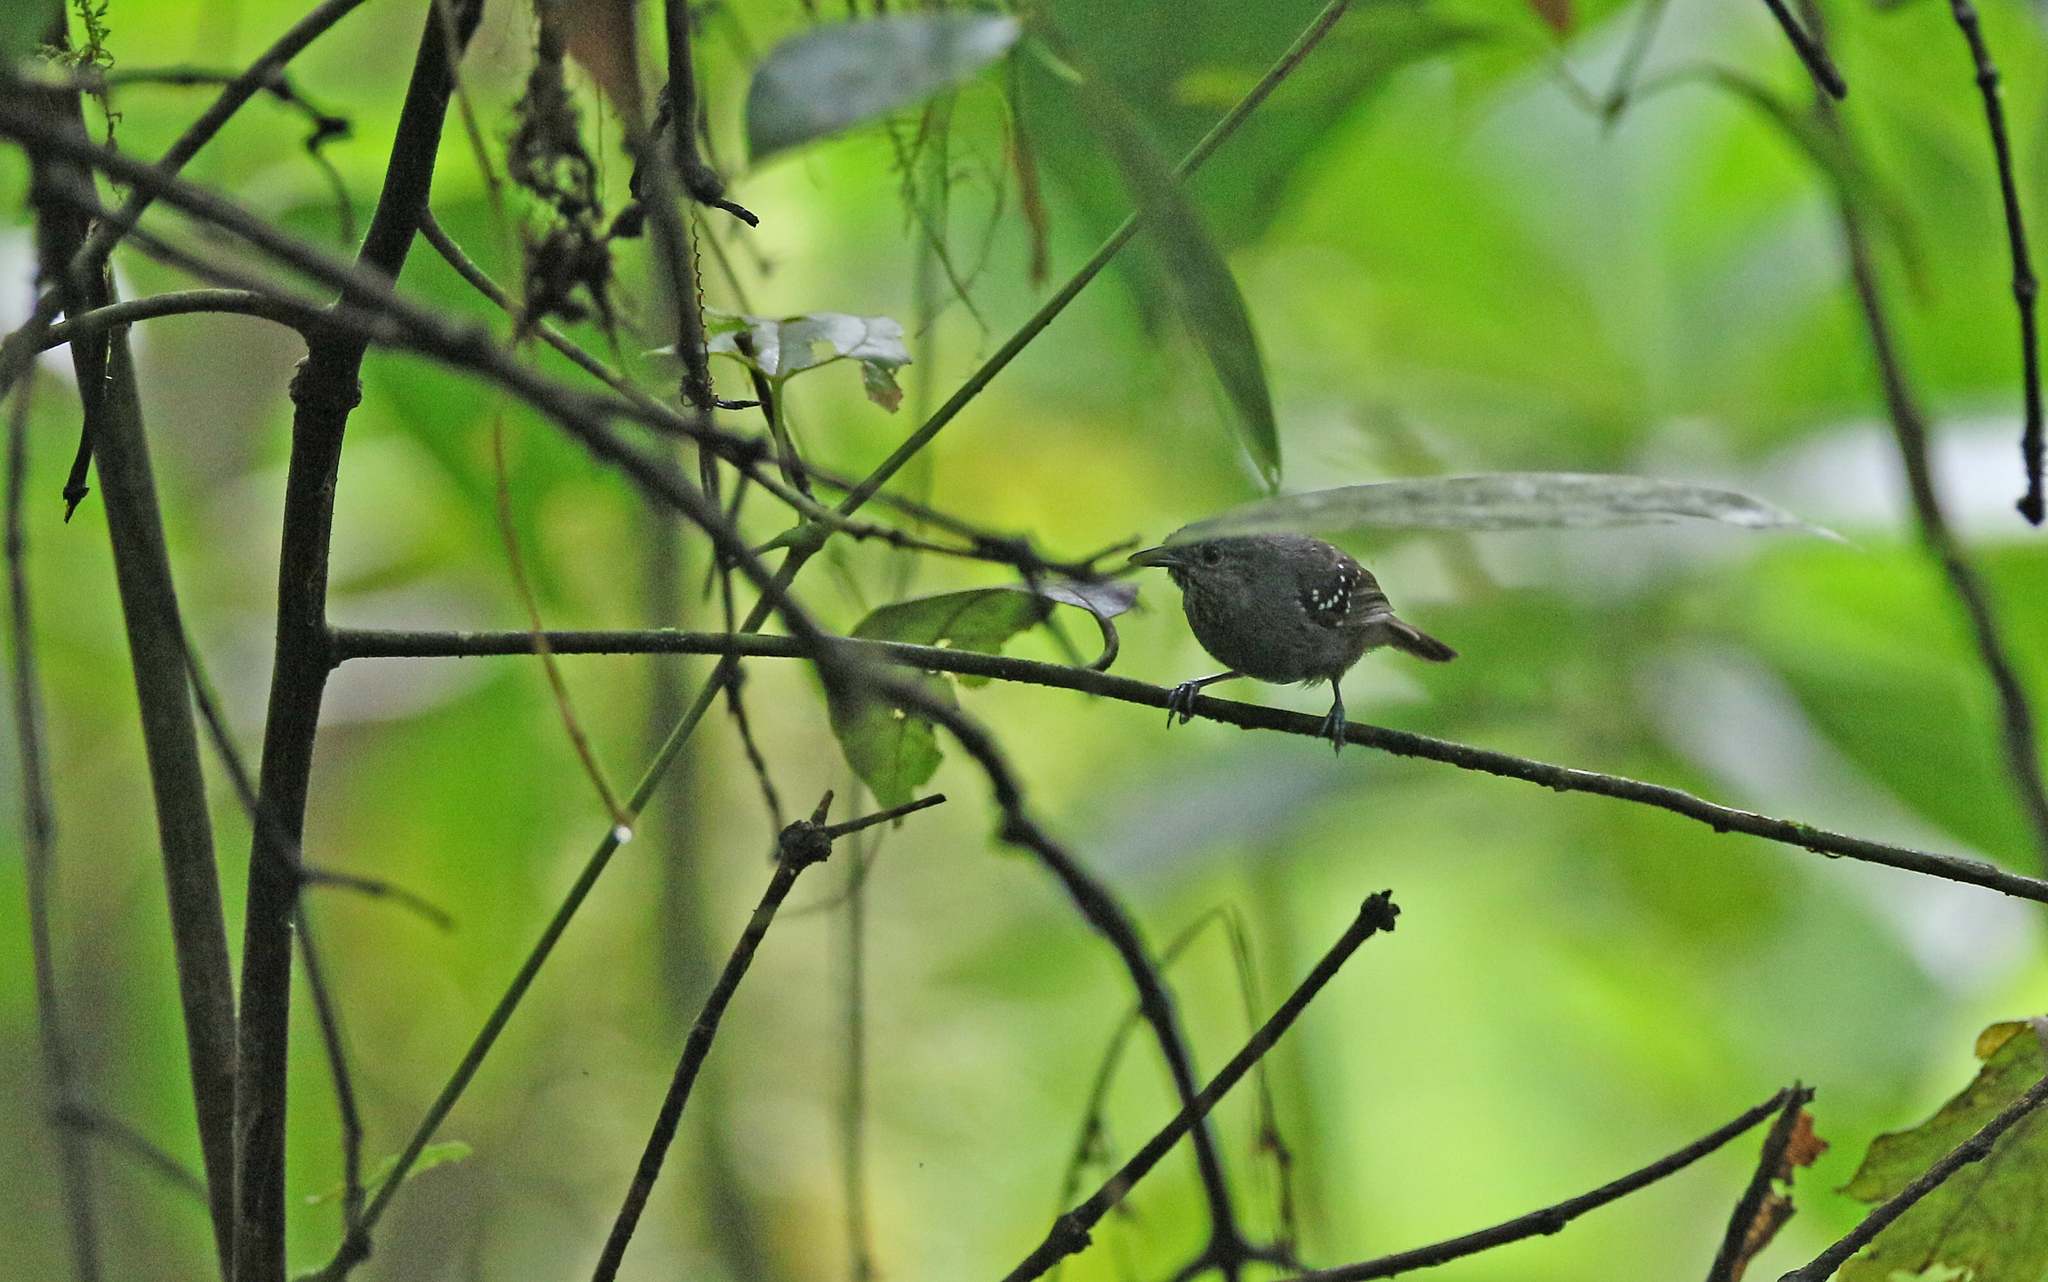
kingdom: Animalia
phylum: Chordata
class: Aves
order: Passeriformes
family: Thamnophilidae
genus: Epinecrophylla
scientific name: Epinecrophylla spodionota
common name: Foothill antwren
